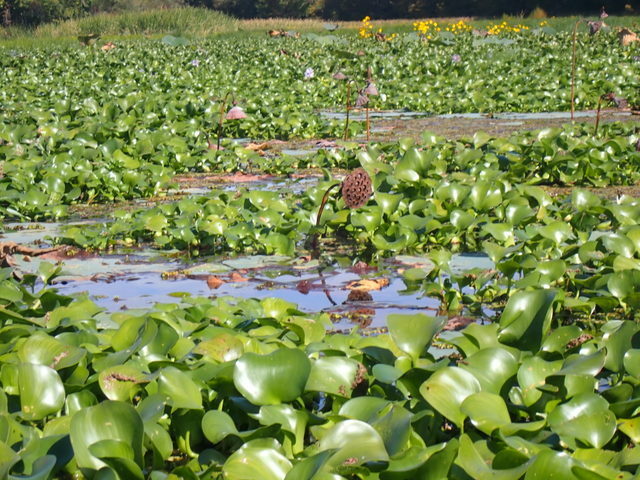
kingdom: Plantae
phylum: Tracheophyta
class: Magnoliopsida
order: Proteales
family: Nelumbonaceae
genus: Nelumbo
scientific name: Nelumbo lutea
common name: American lotus
